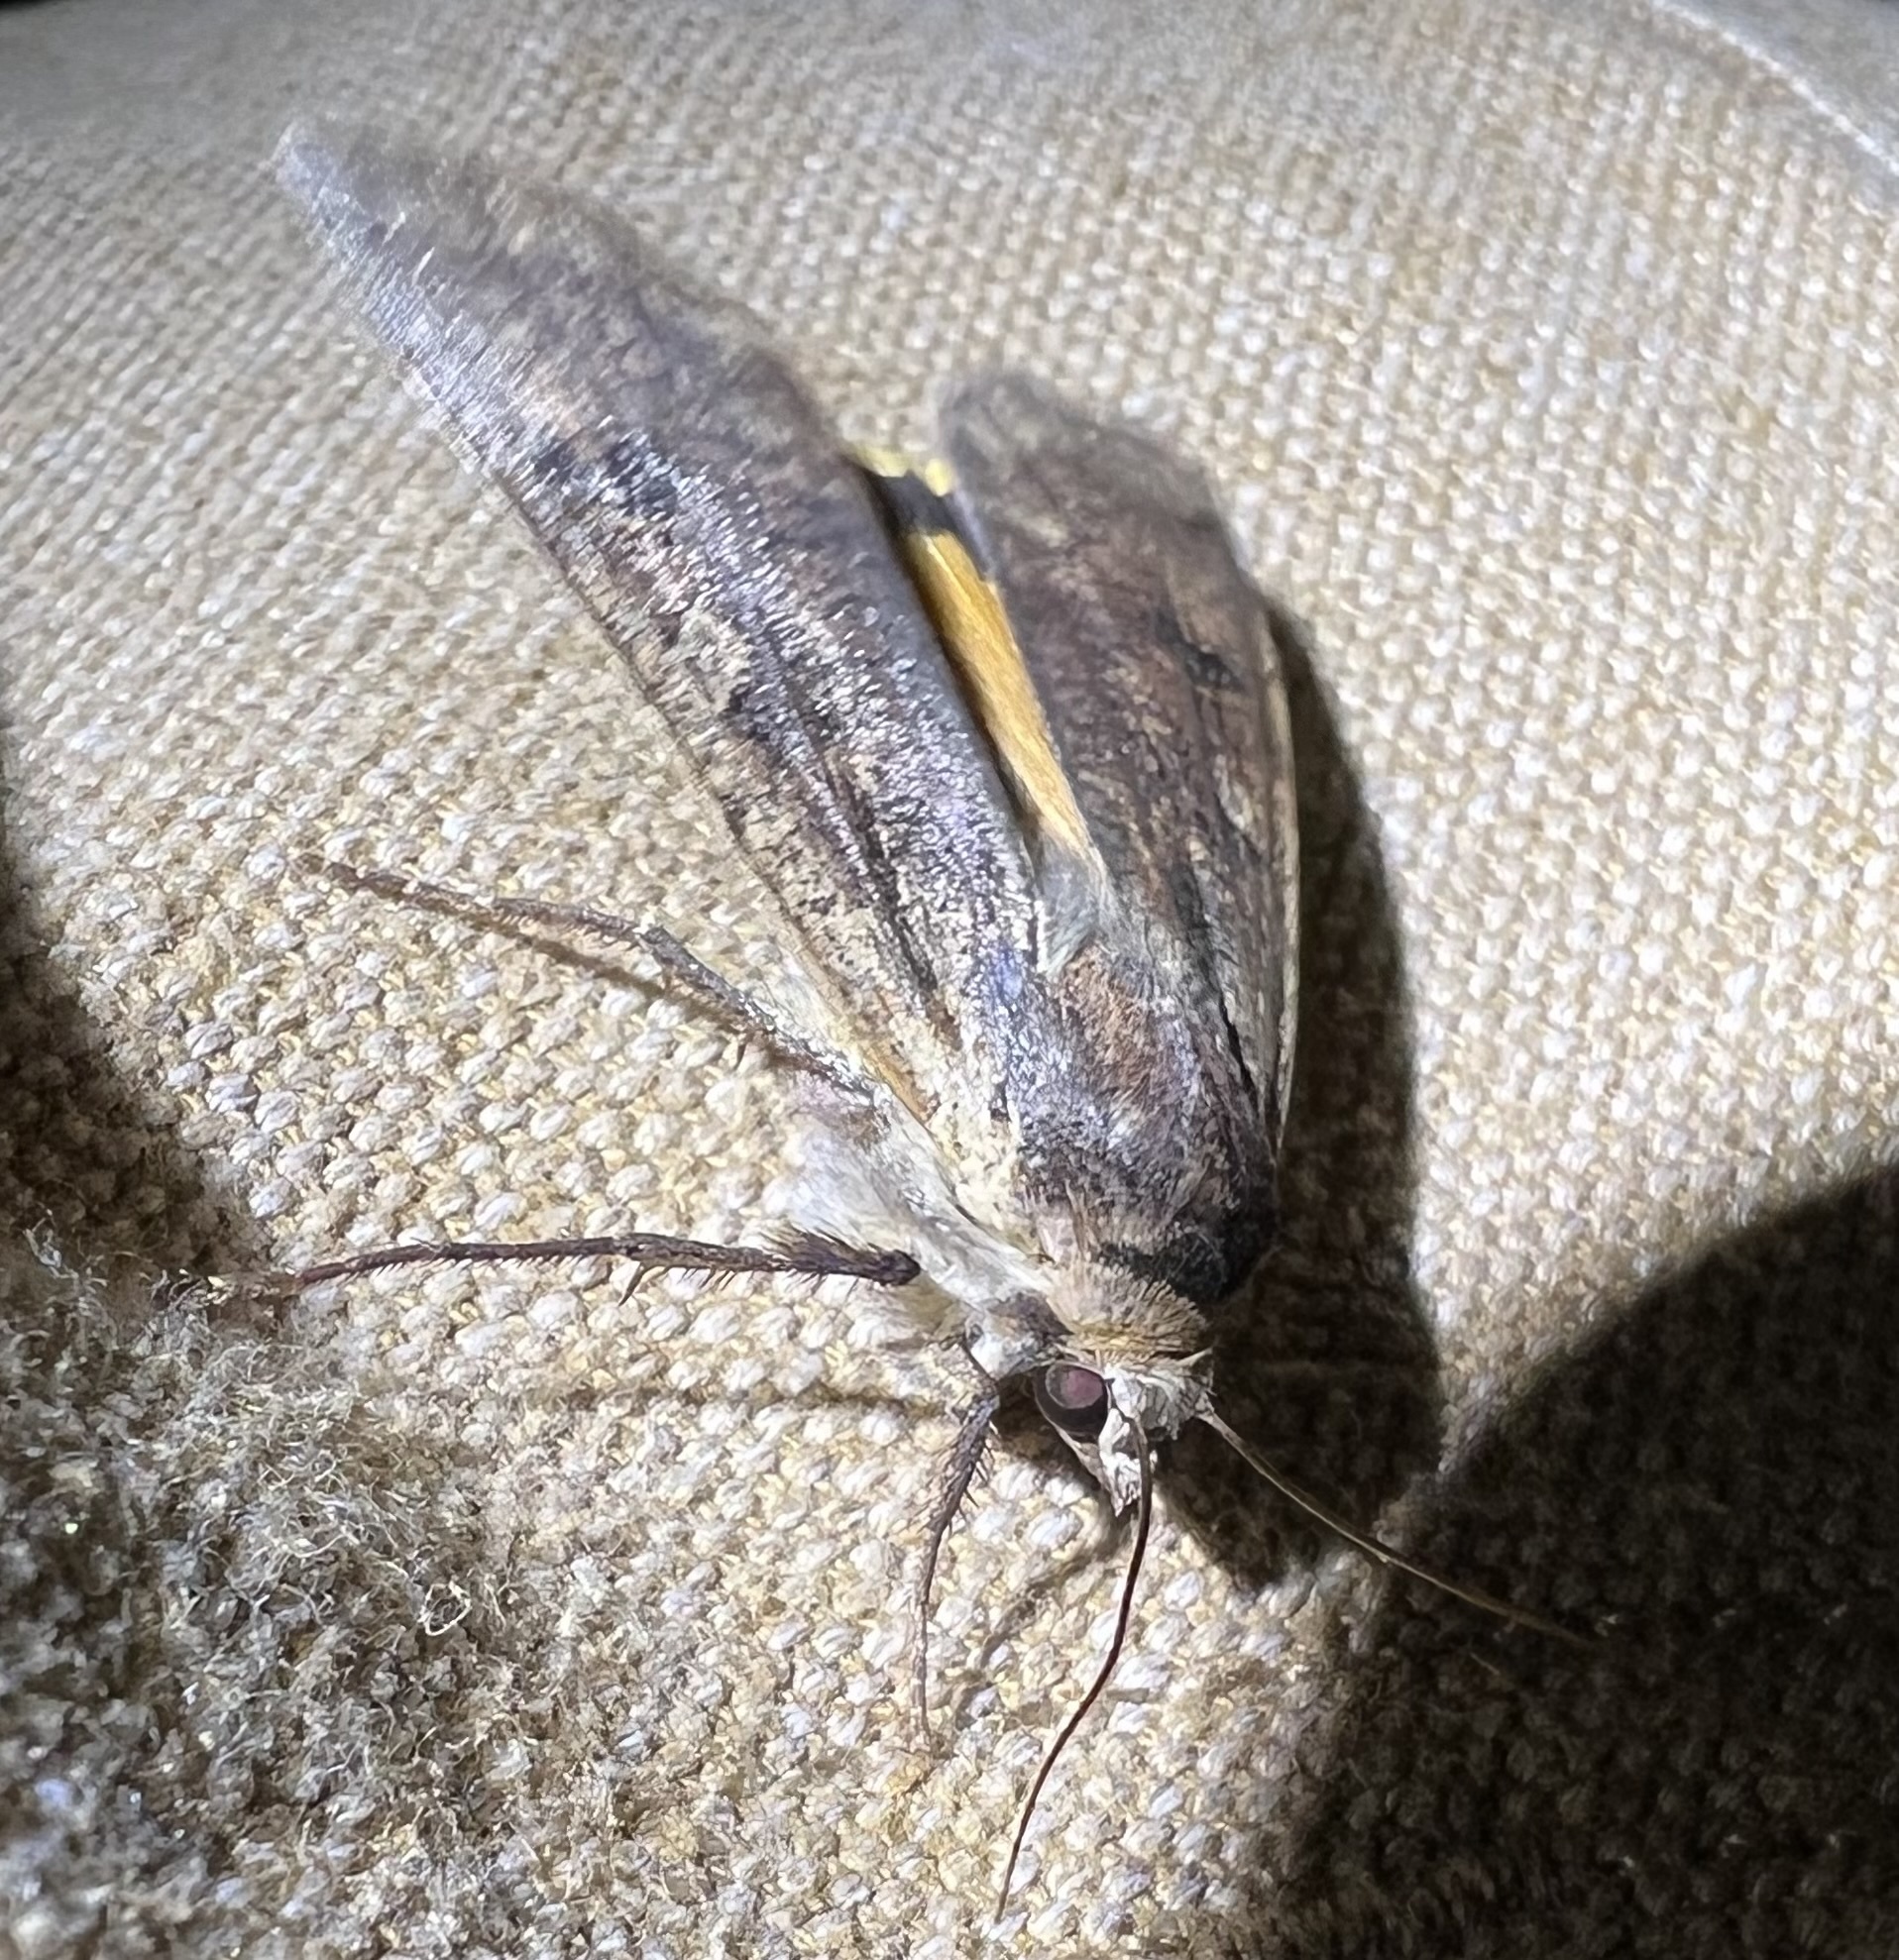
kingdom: Animalia
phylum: Arthropoda
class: Insecta
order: Lepidoptera
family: Noctuidae
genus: Noctua
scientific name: Noctua pronuba
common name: Large yellow underwing
